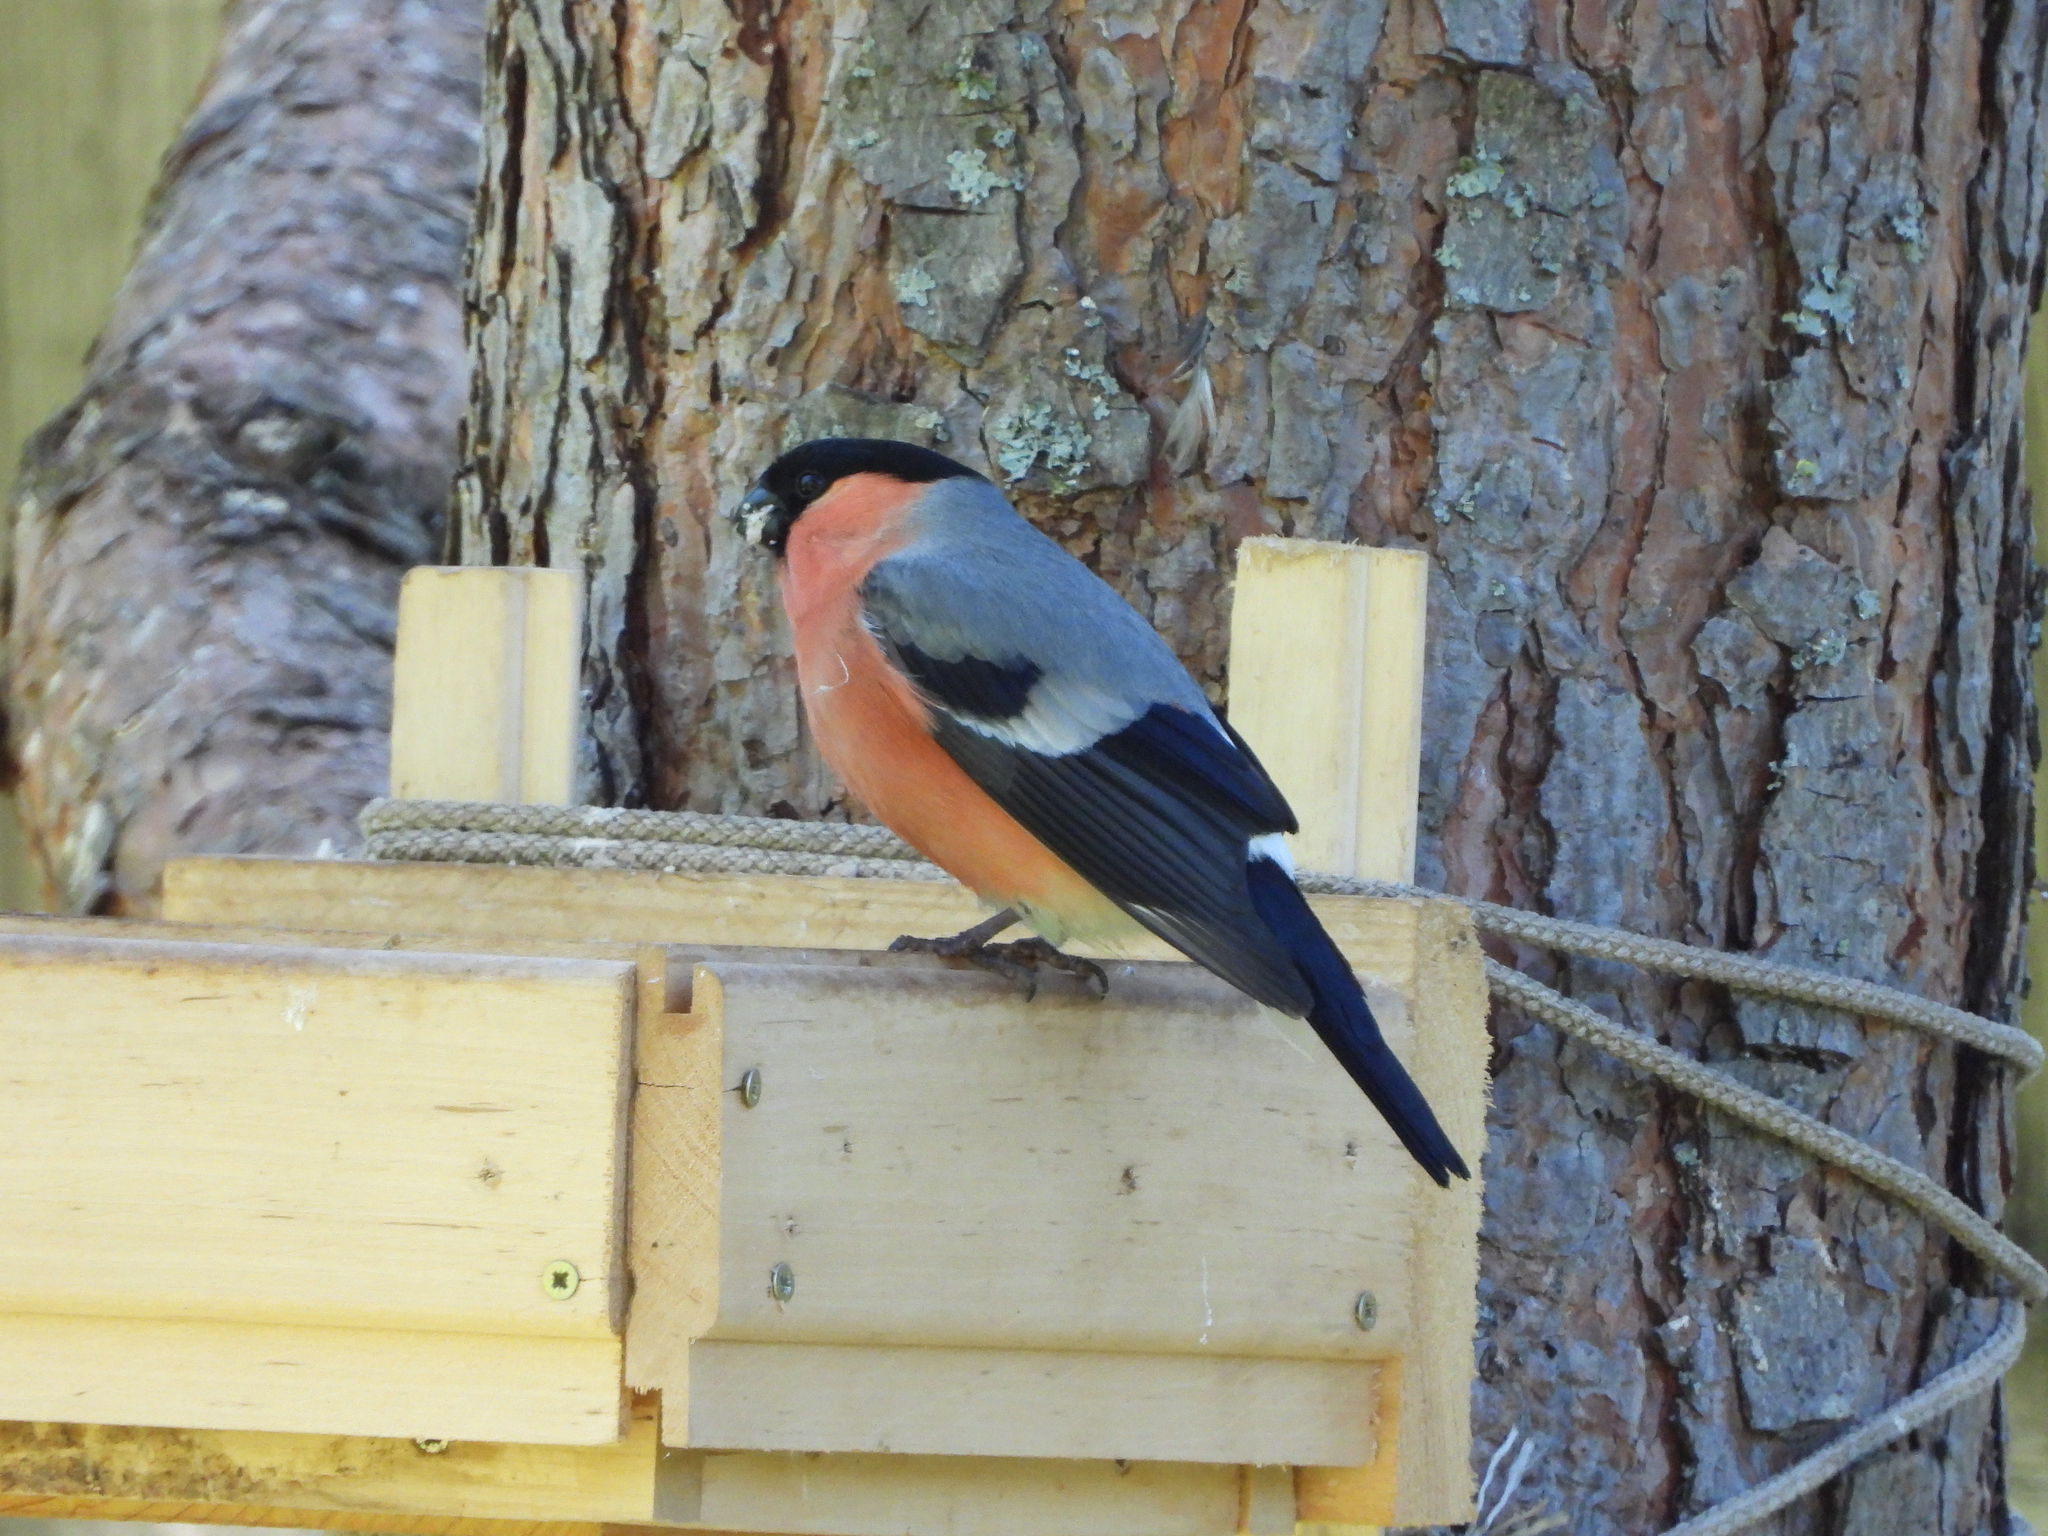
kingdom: Animalia
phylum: Chordata
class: Aves
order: Passeriformes
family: Fringillidae
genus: Pyrrhula
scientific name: Pyrrhula pyrrhula
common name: Eurasian bullfinch
